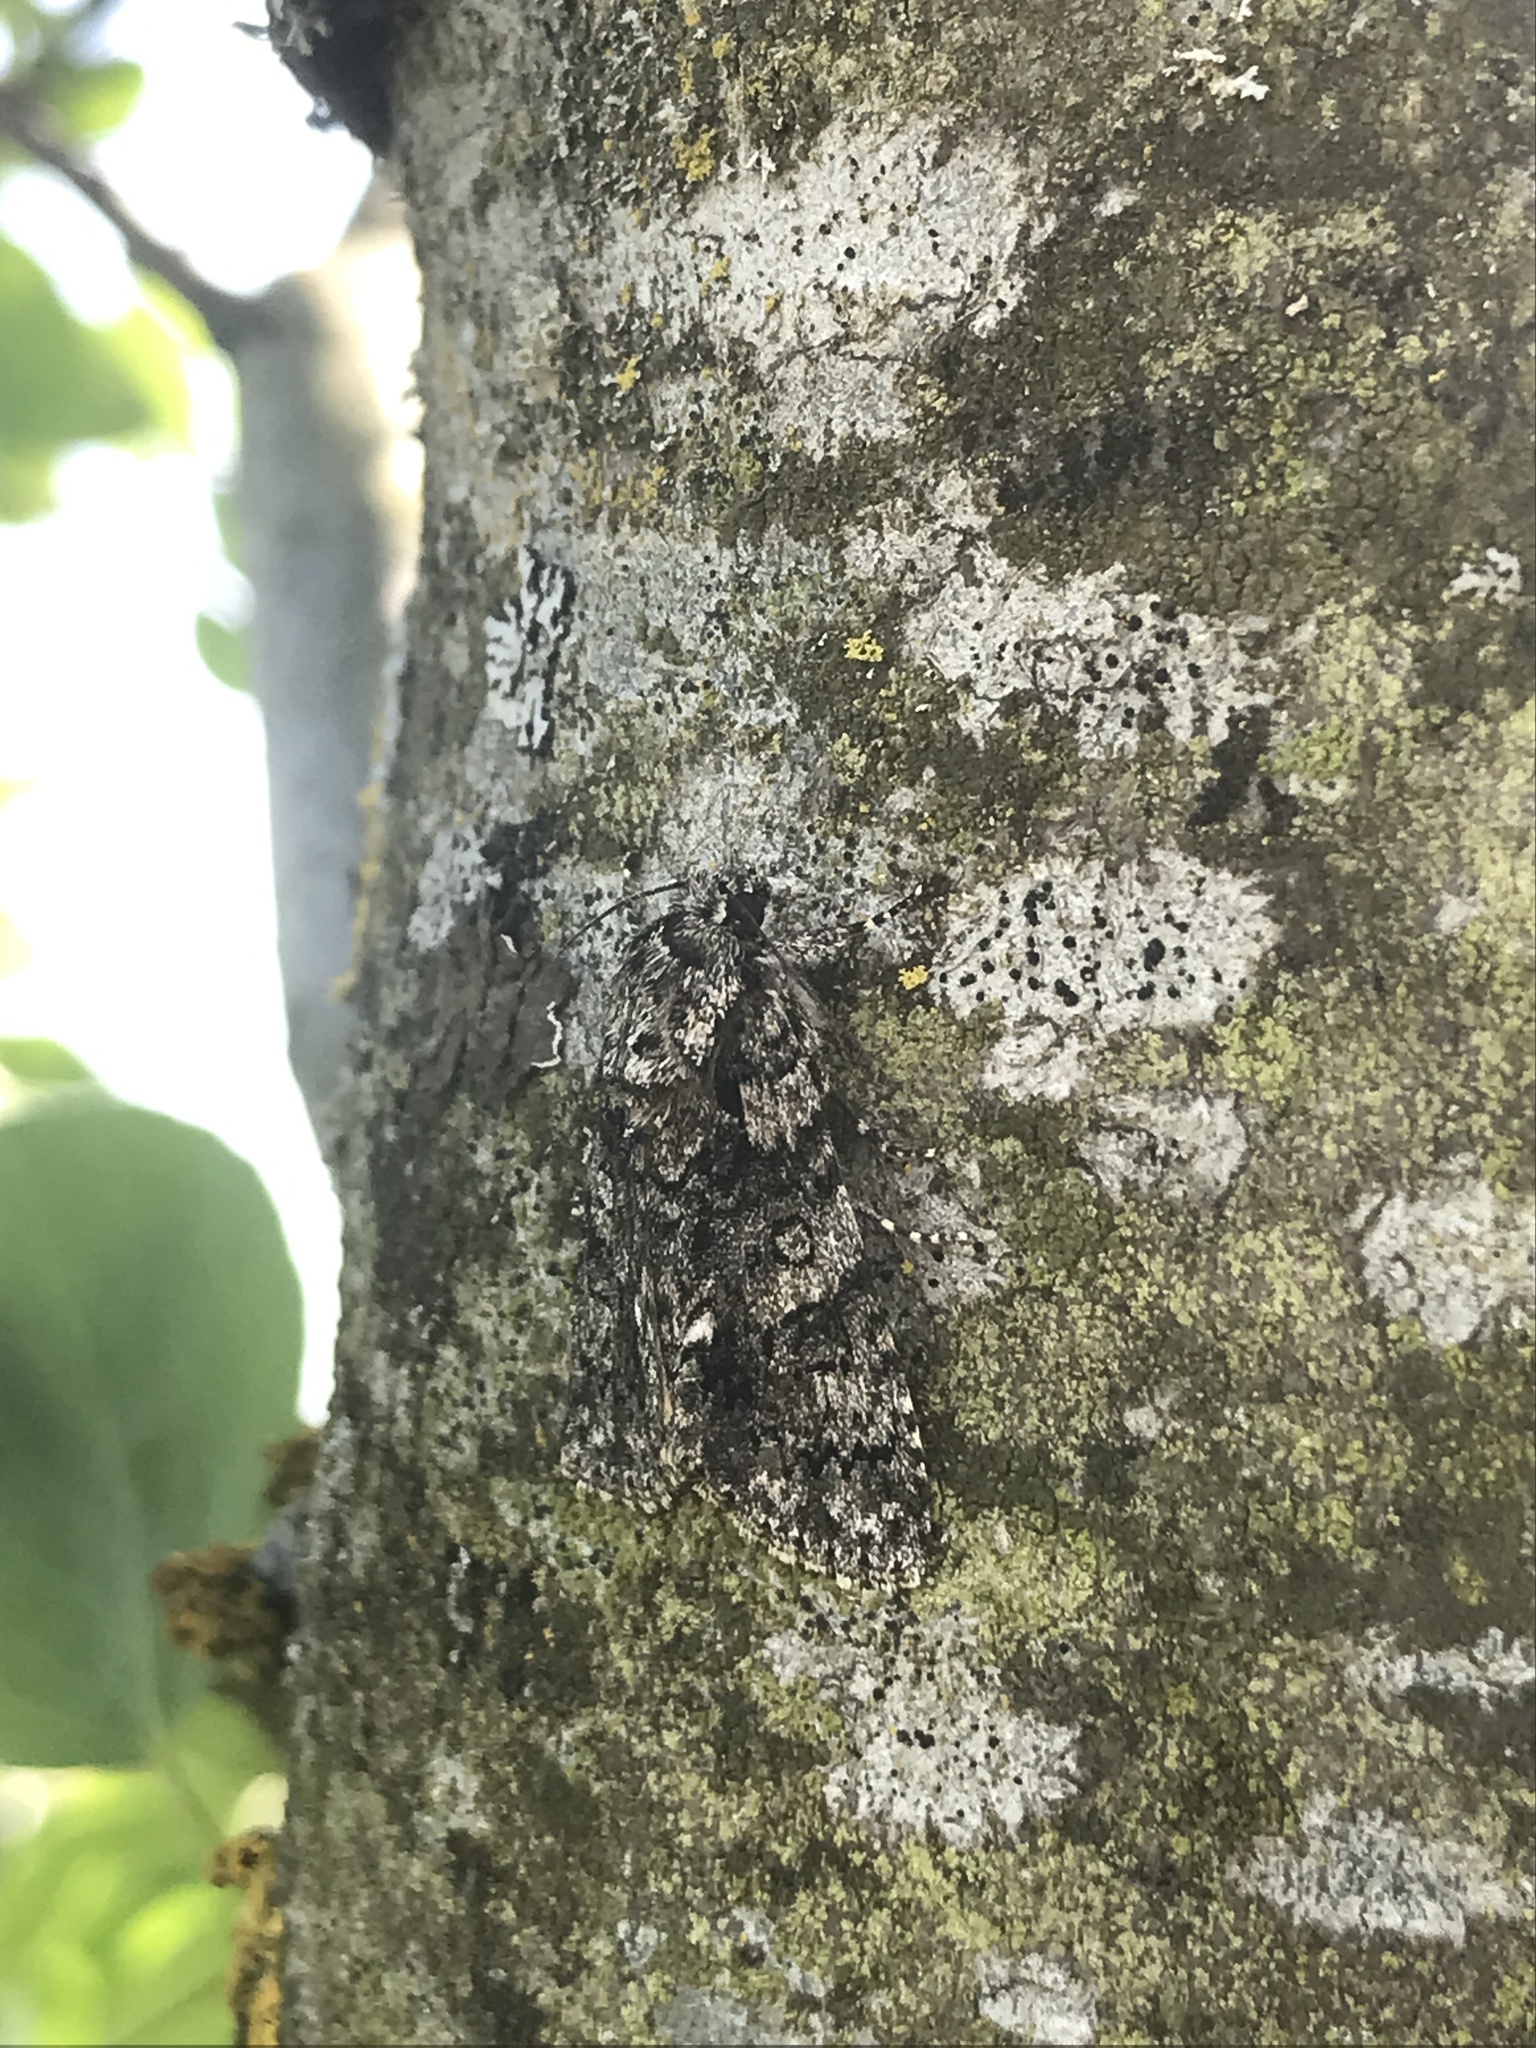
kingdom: Animalia
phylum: Arthropoda
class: Insecta
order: Lepidoptera
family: Noctuidae
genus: Acronicta
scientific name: Acronicta rumicis
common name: Knot grass
